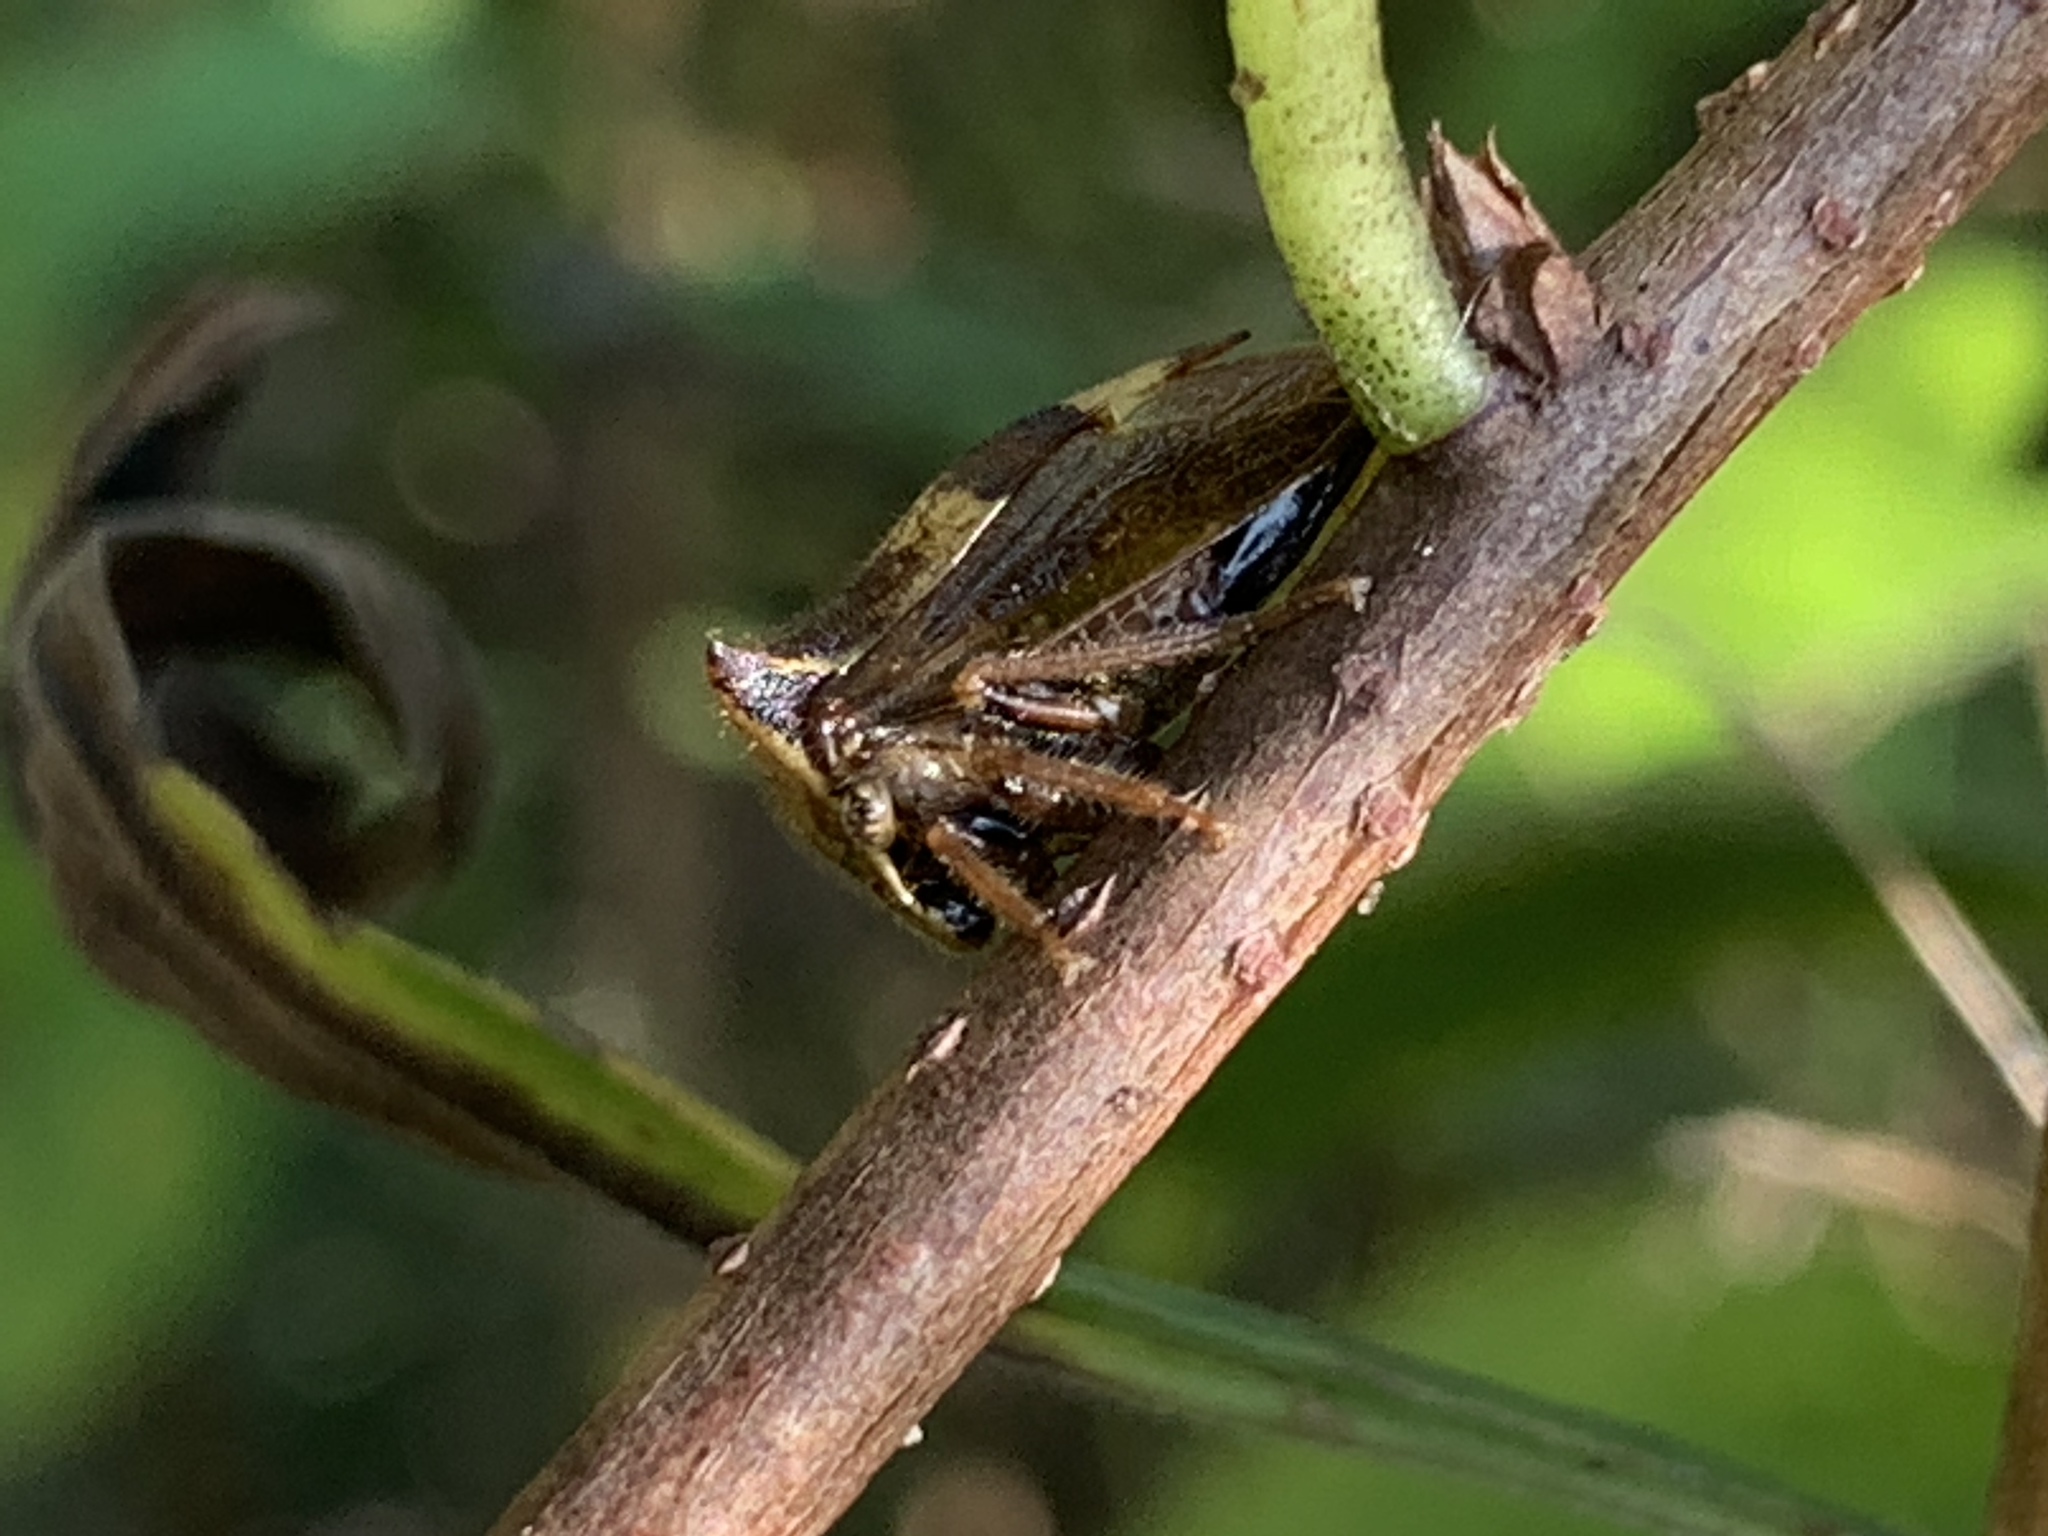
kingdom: Animalia
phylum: Arthropoda
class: Insecta
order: Hemiptera
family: Membracidae
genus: Stictocephala
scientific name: Stictocephala diceros
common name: Two-horned treehopper
